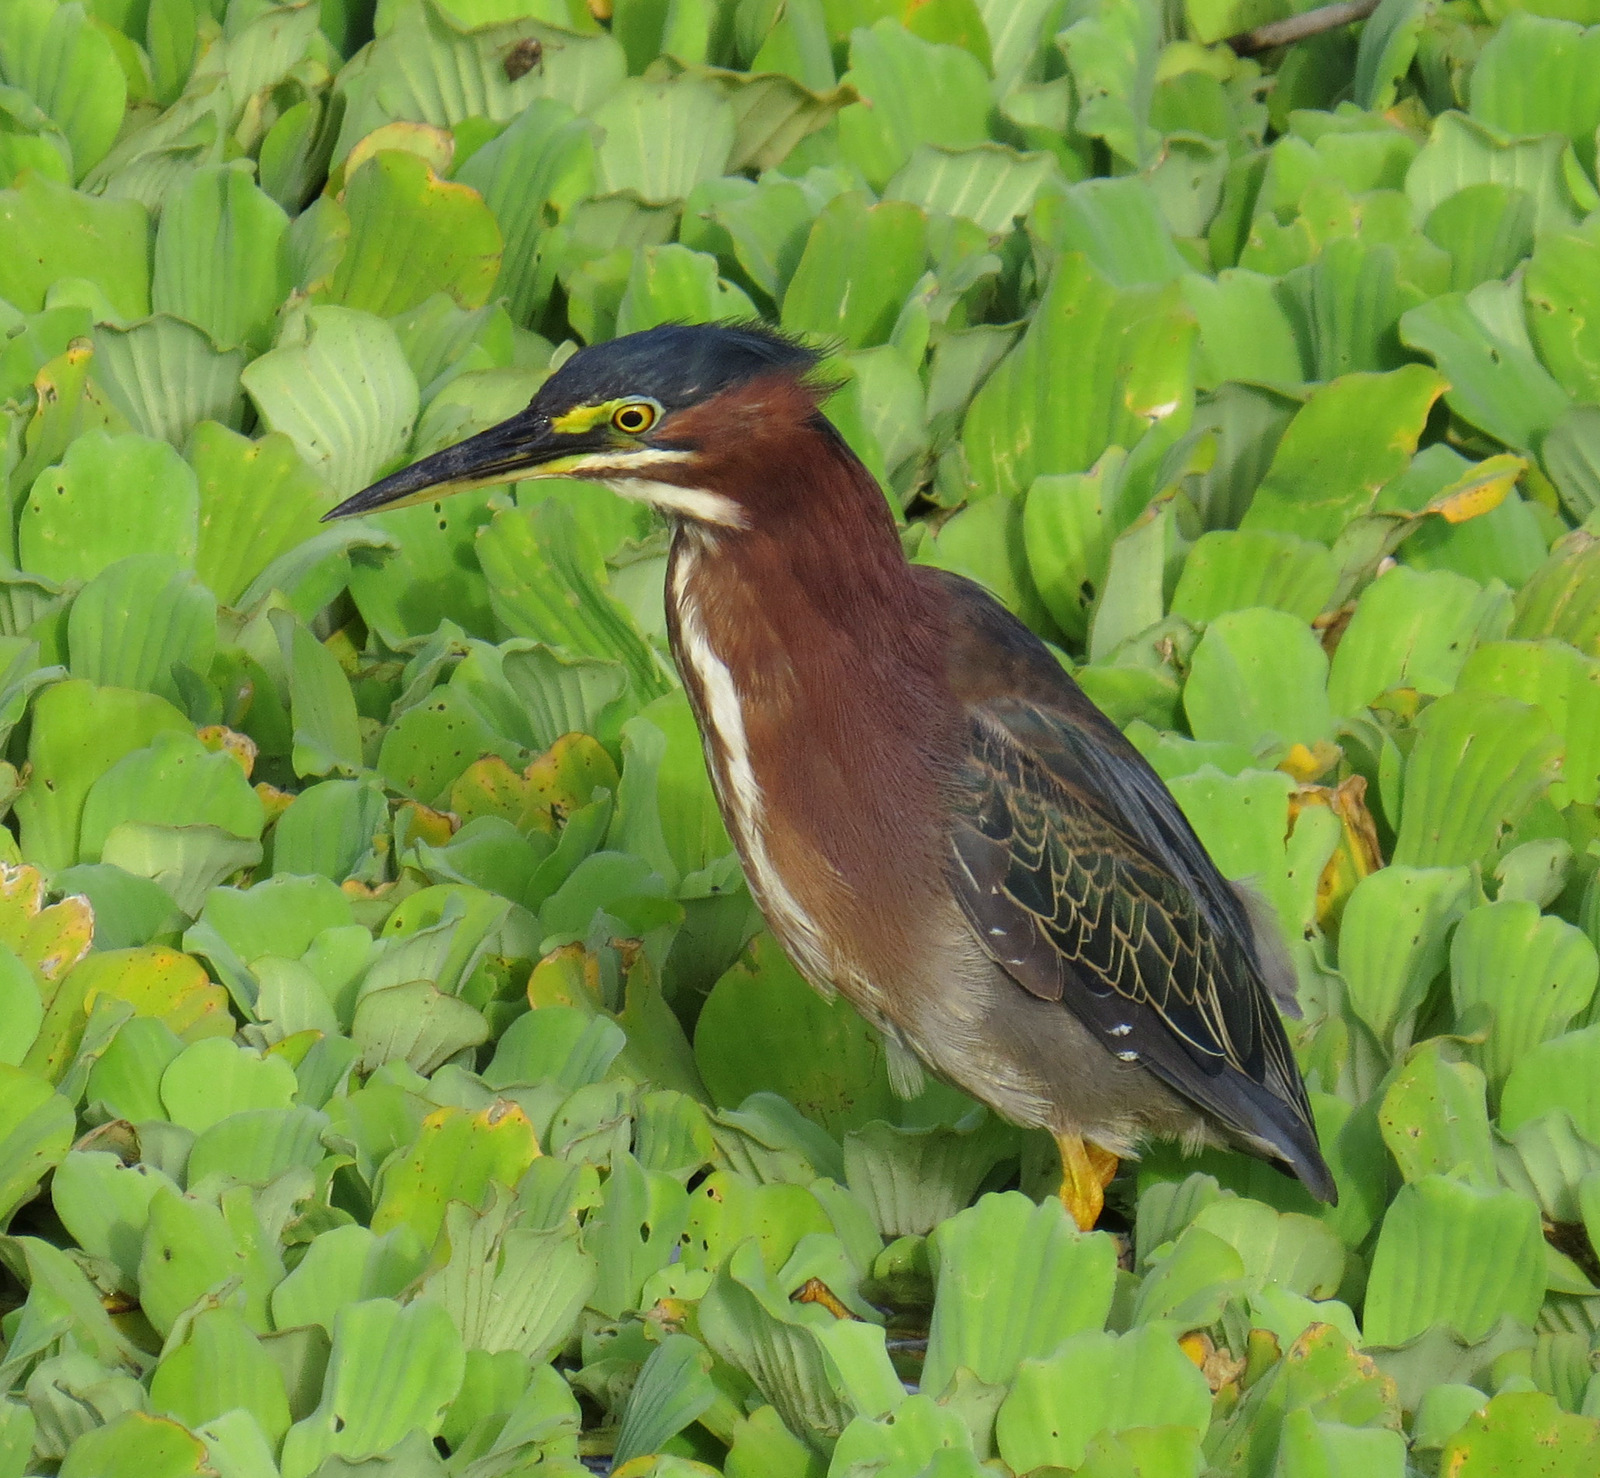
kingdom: Animalia
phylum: Chordata
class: Aves
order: Pelecaniformes
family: Ardeidae
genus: Butorides
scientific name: Butorides virescens
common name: Green heron
